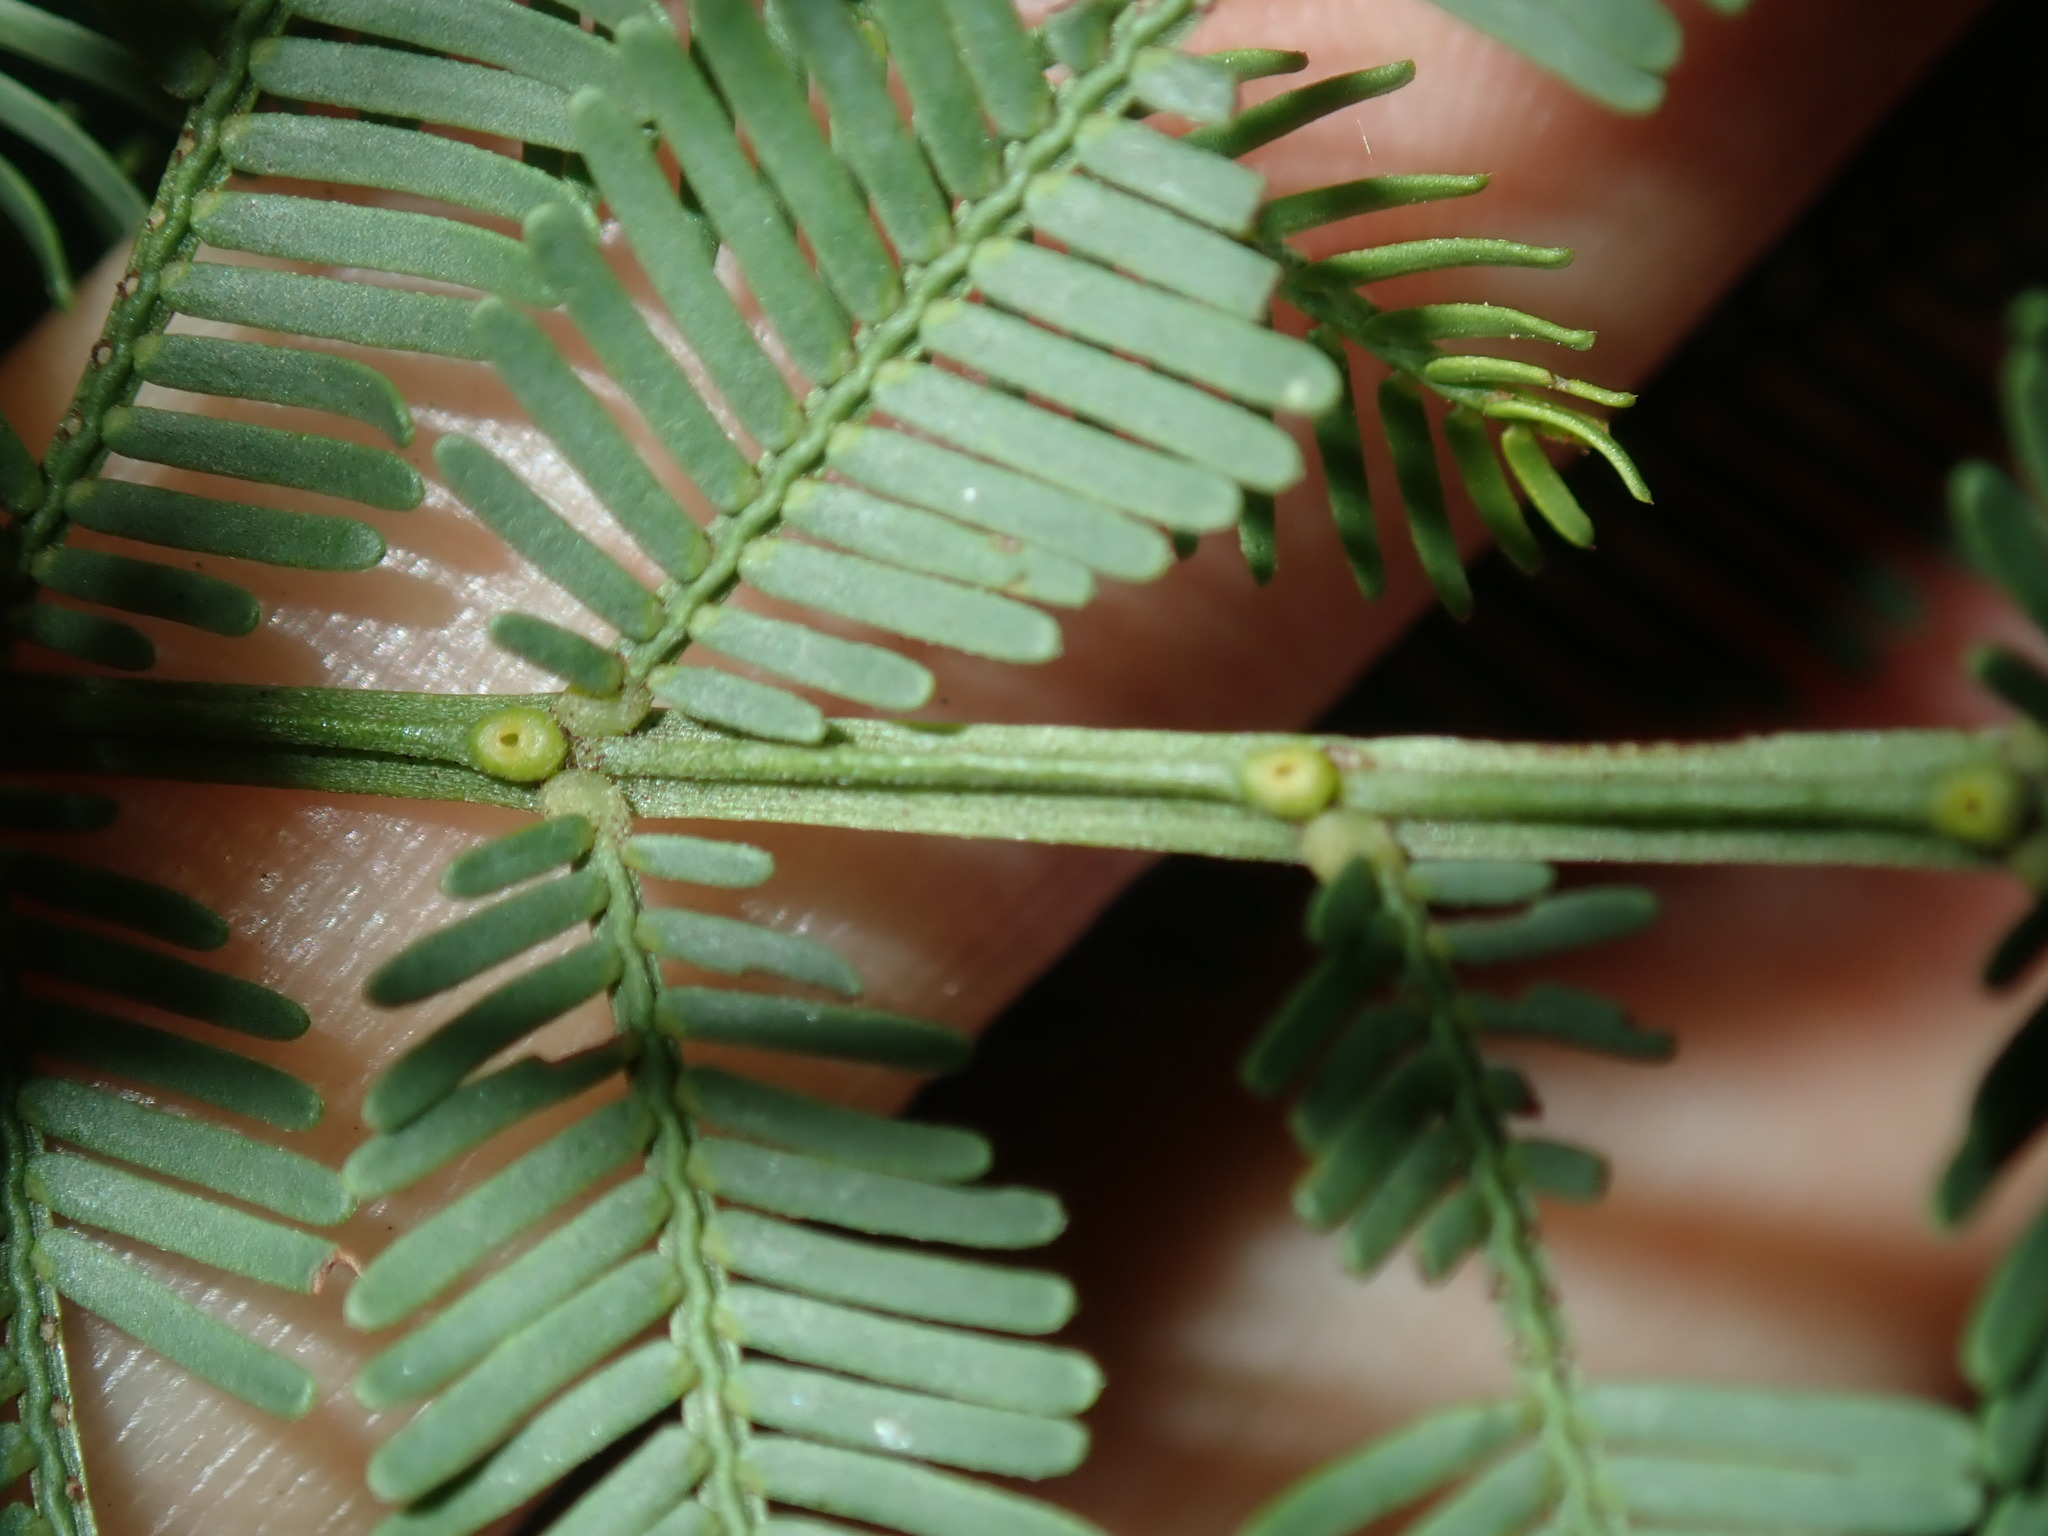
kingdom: Plantae
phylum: Tracheophyta
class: Magnoliopsida
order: Fabales
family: Fabaceae
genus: Acacia
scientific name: Acacia parramattensis
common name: Sydney green wattle
